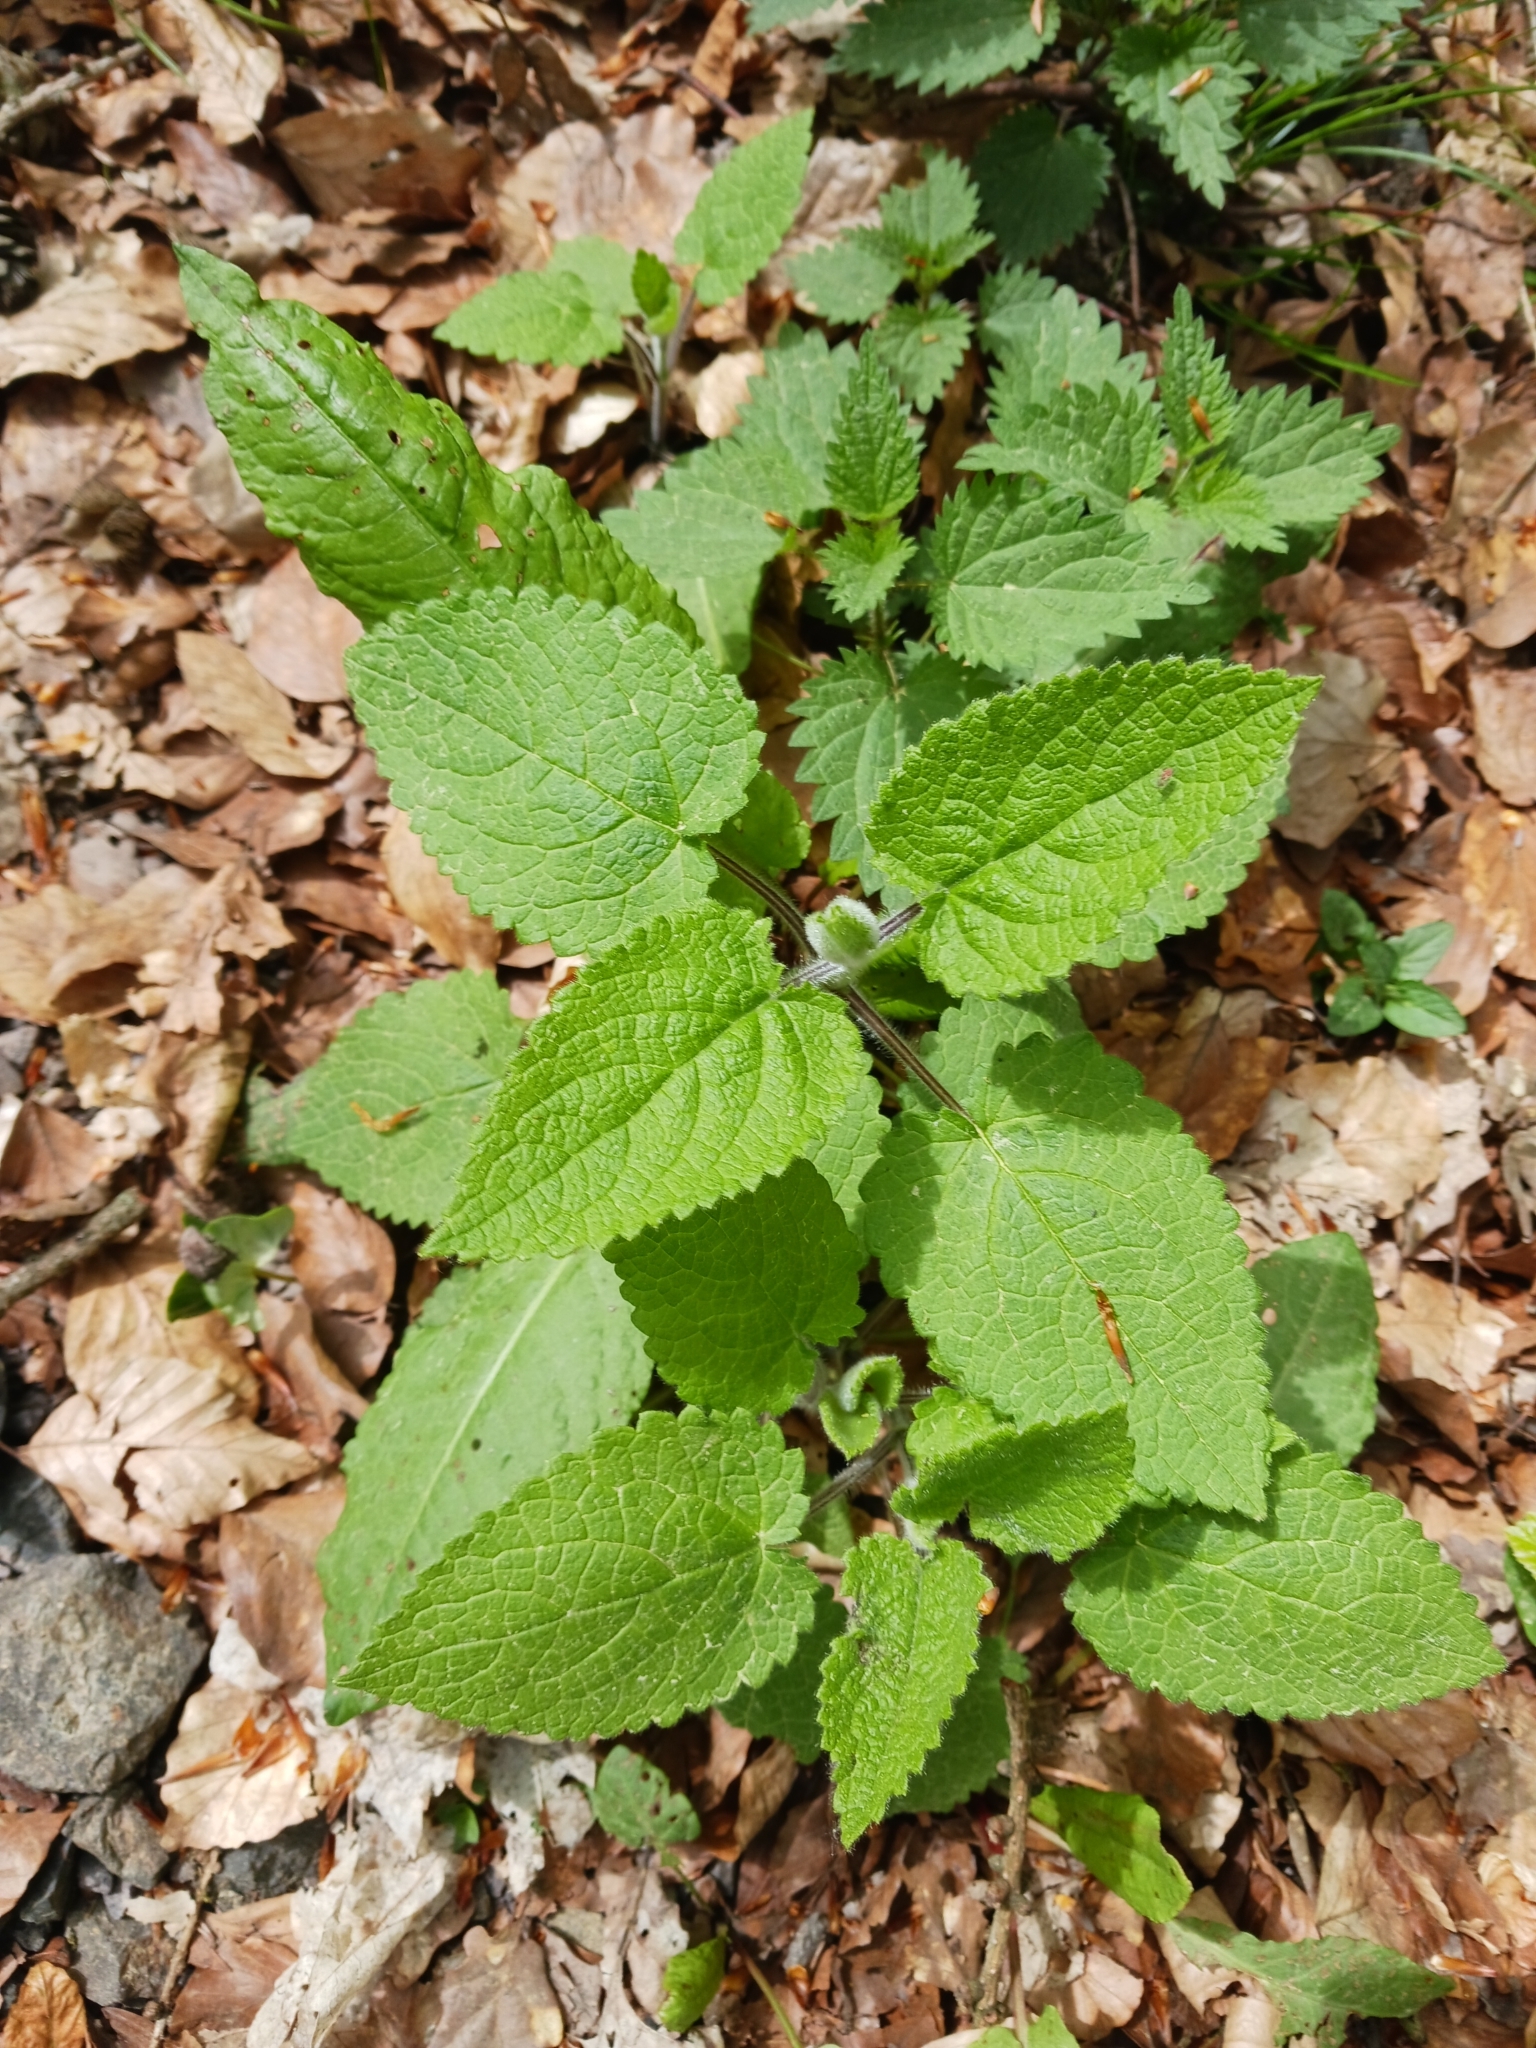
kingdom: Plantae
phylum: Tracheophyta
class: Magnoliopsida
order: Lamiales
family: Lamiaceae
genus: Stachys
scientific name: Stachys sylvatica
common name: Hedge woundwort
